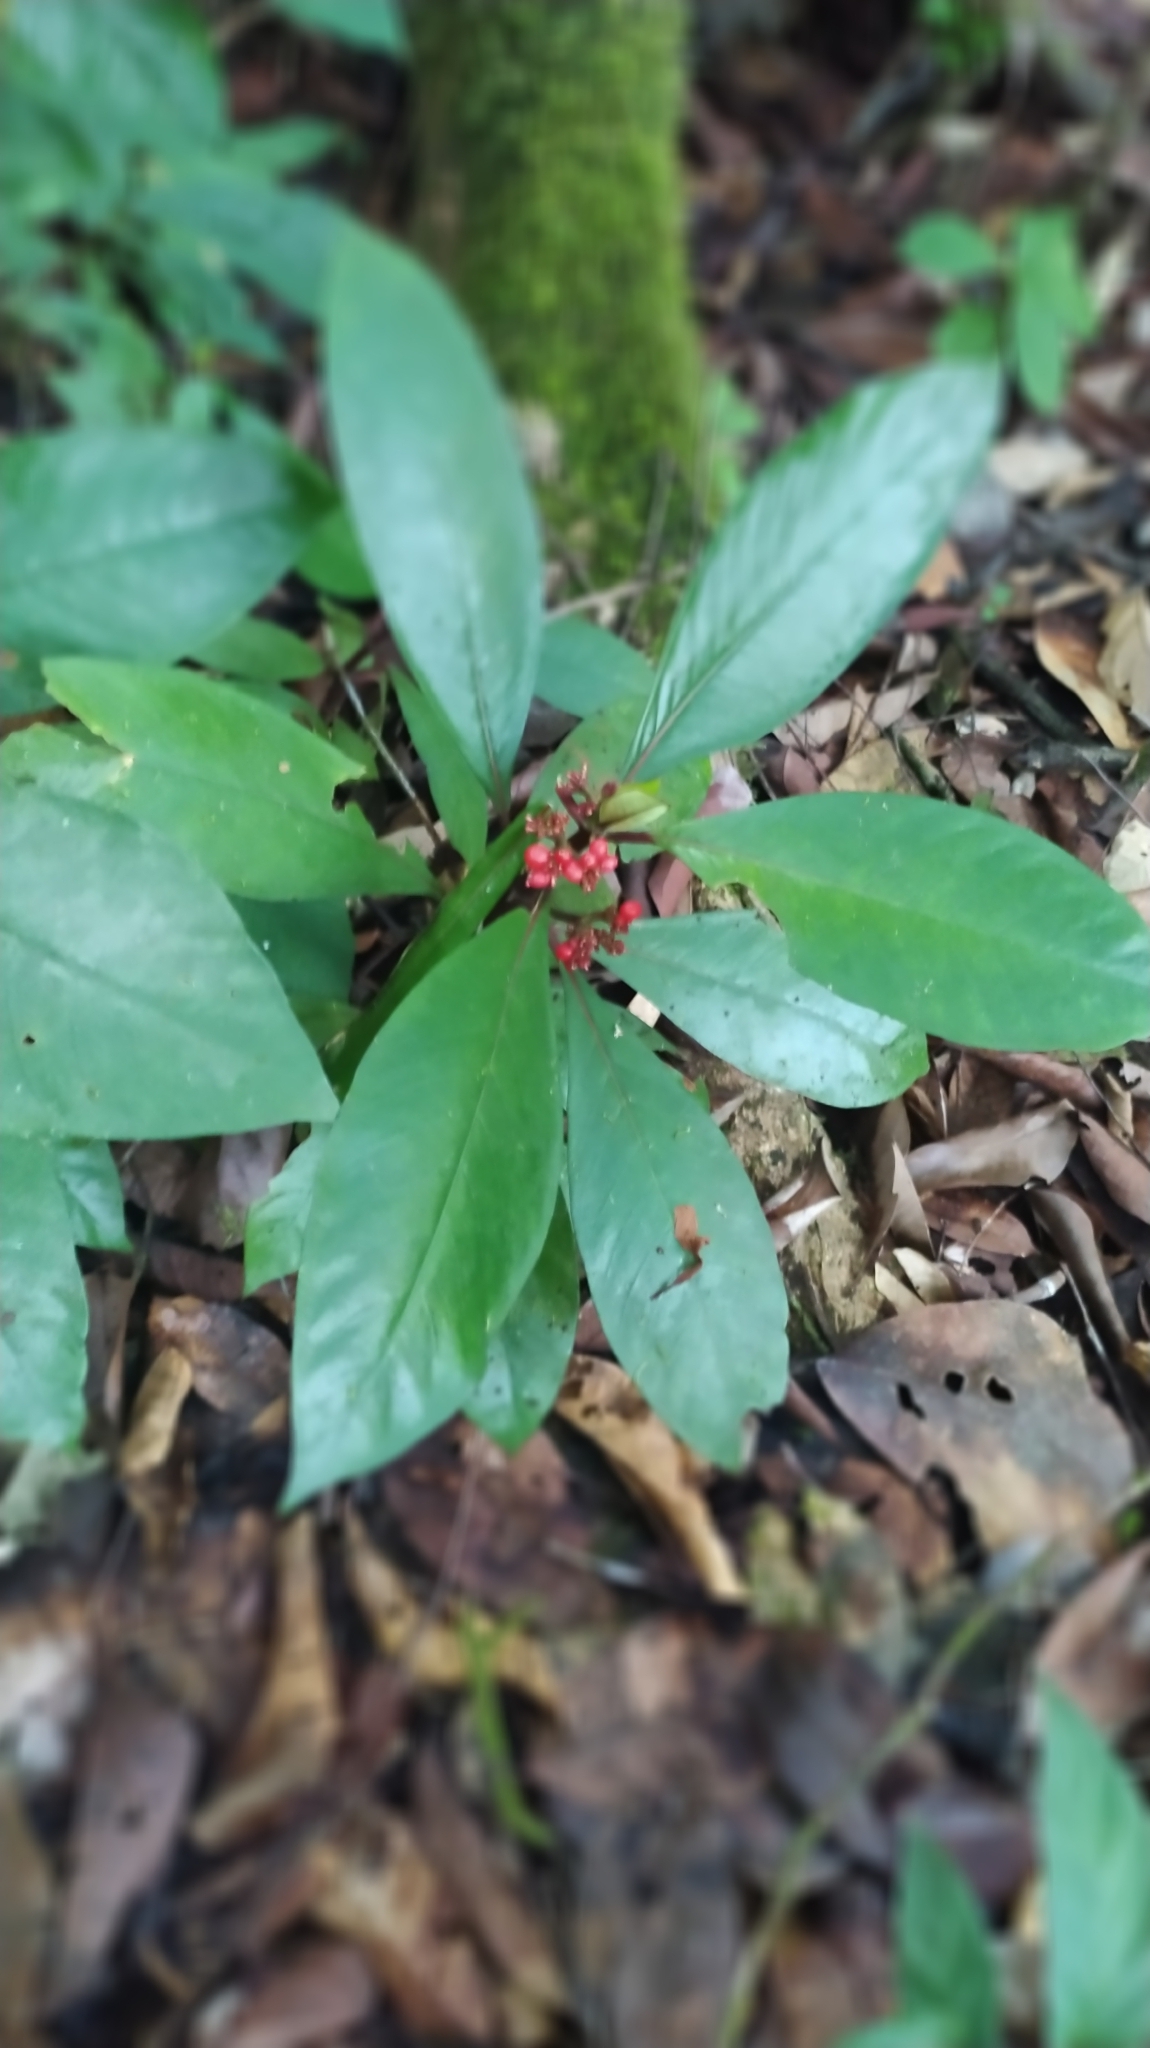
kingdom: Plantae
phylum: Tracheophyta
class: Magnoliopsida
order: Gentianales
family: Rubiaceae
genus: Notopleura
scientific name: Notopleura uliginosa
